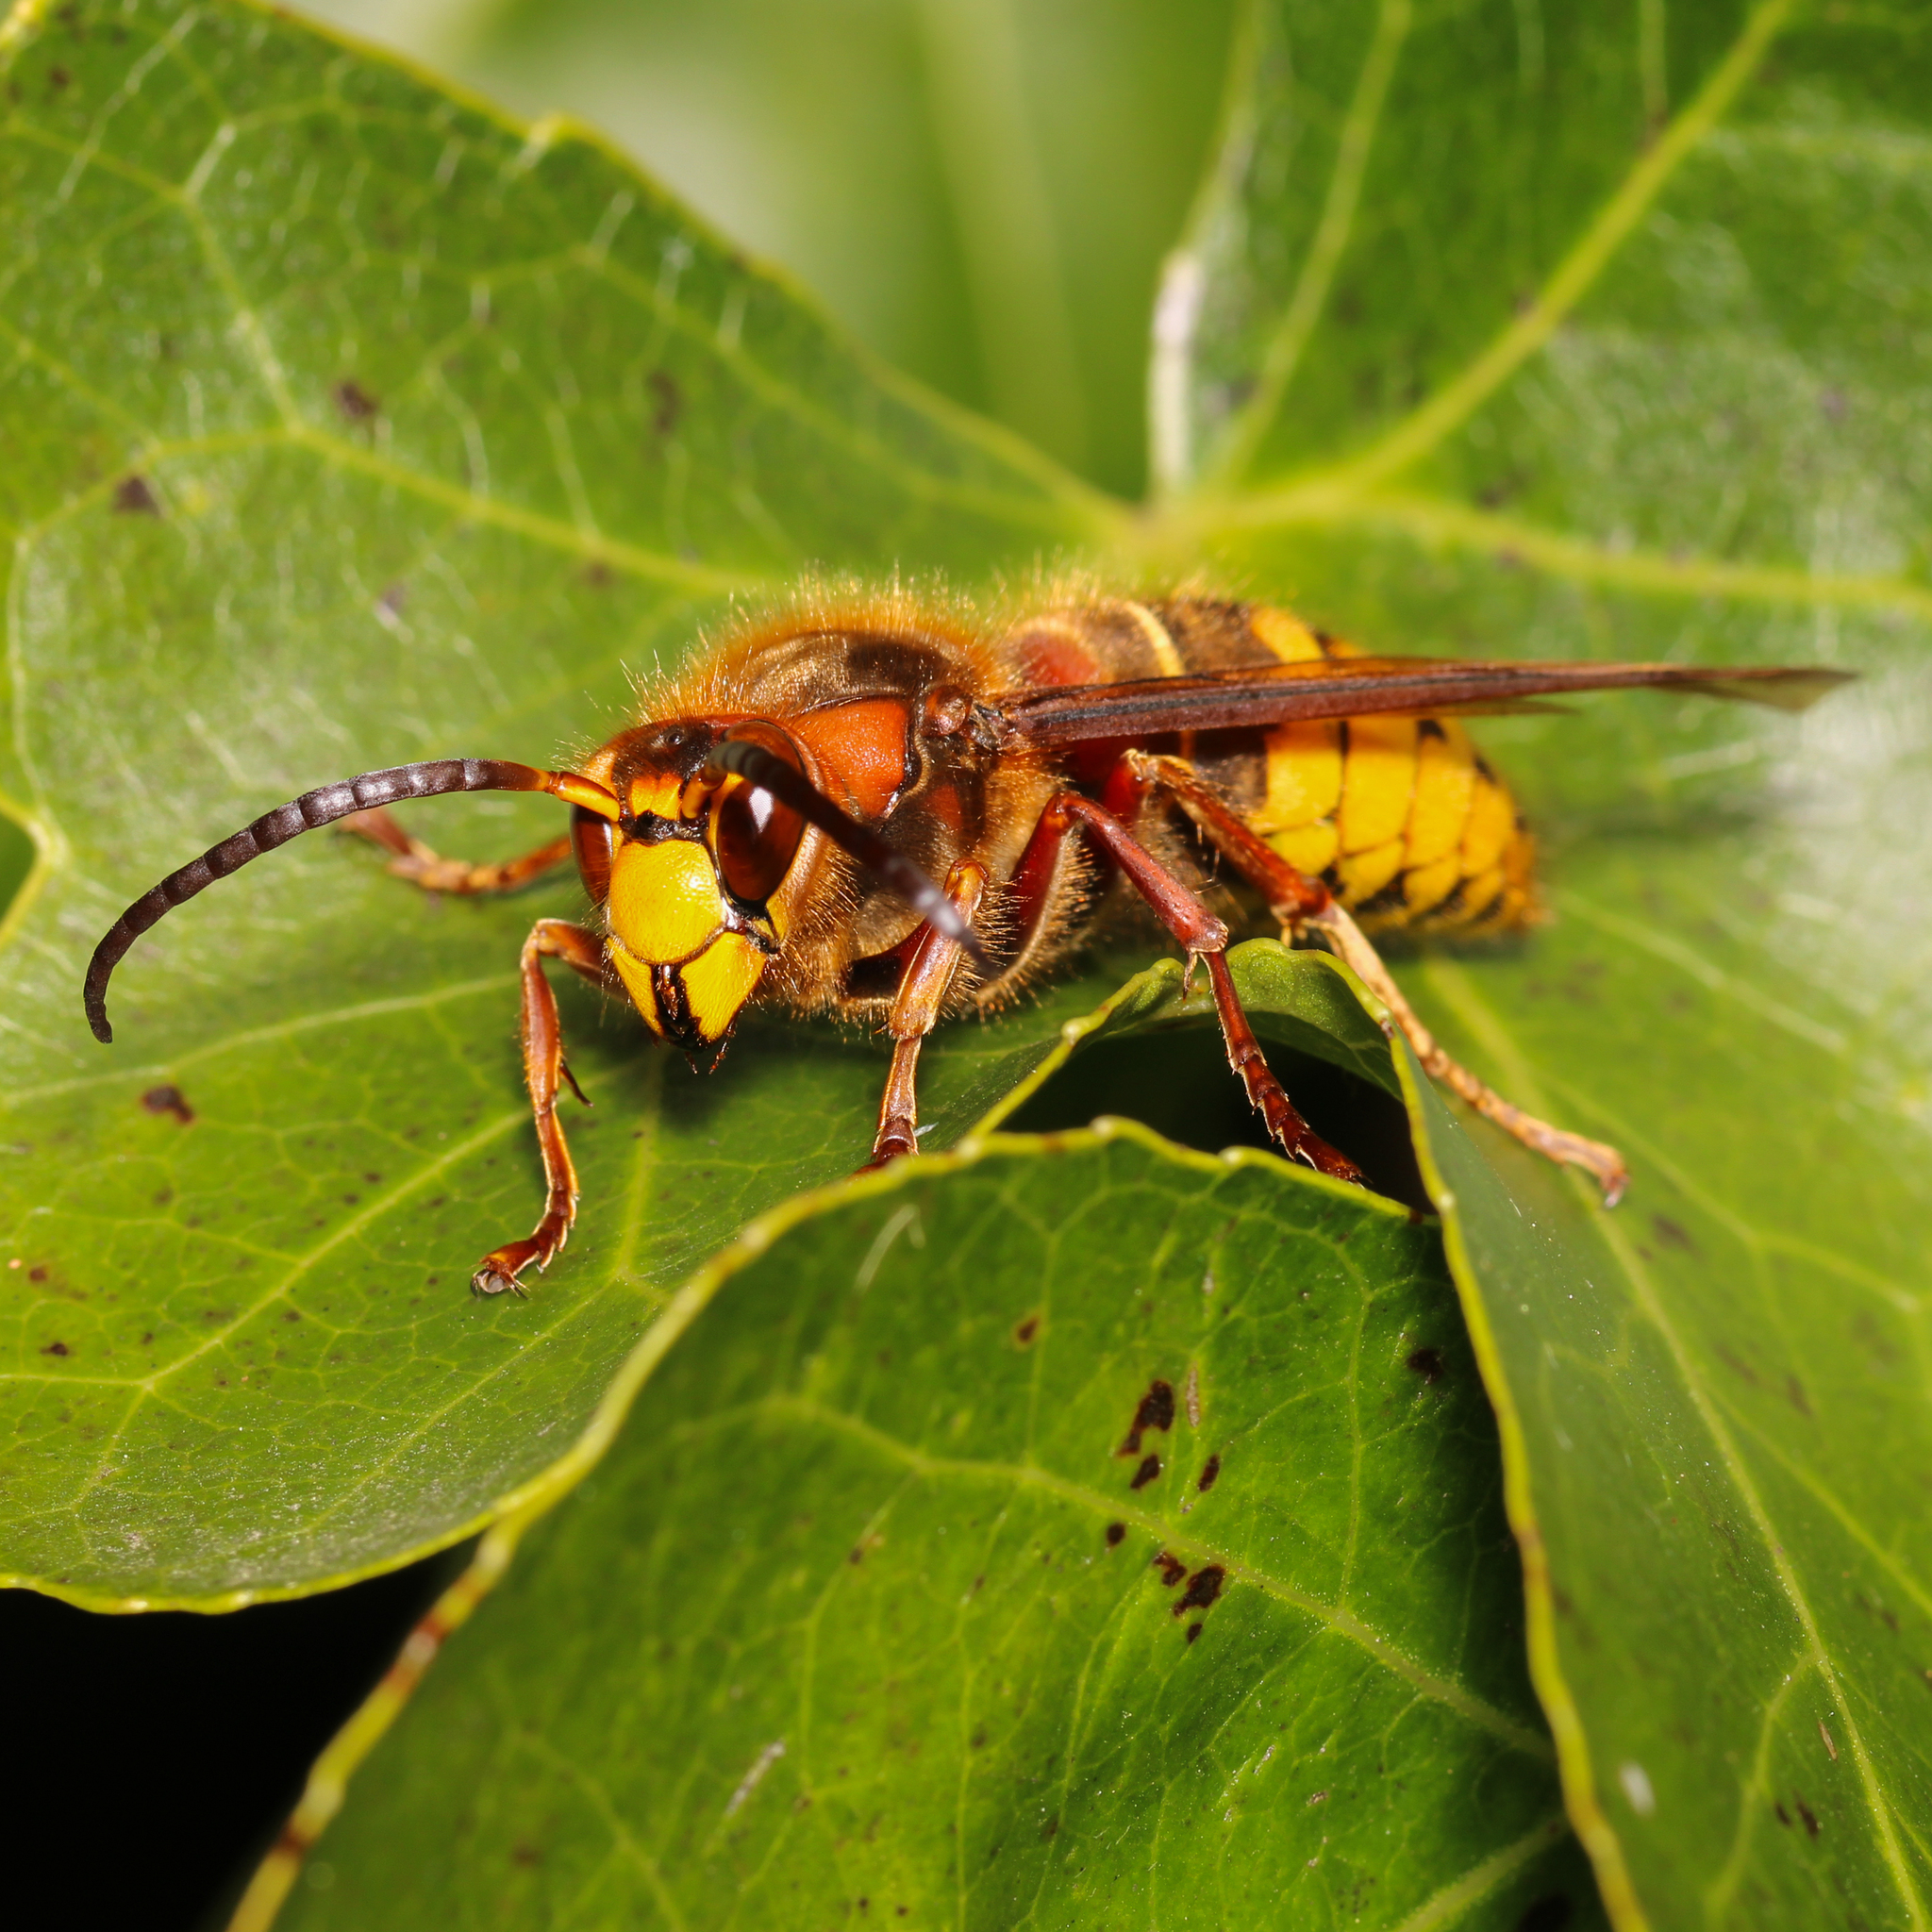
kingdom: Animalia
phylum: Arthropoda
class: Insecta
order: Hymenoptera
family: Vespidae
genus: Vespa
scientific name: Vespa crabro
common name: Hornet
